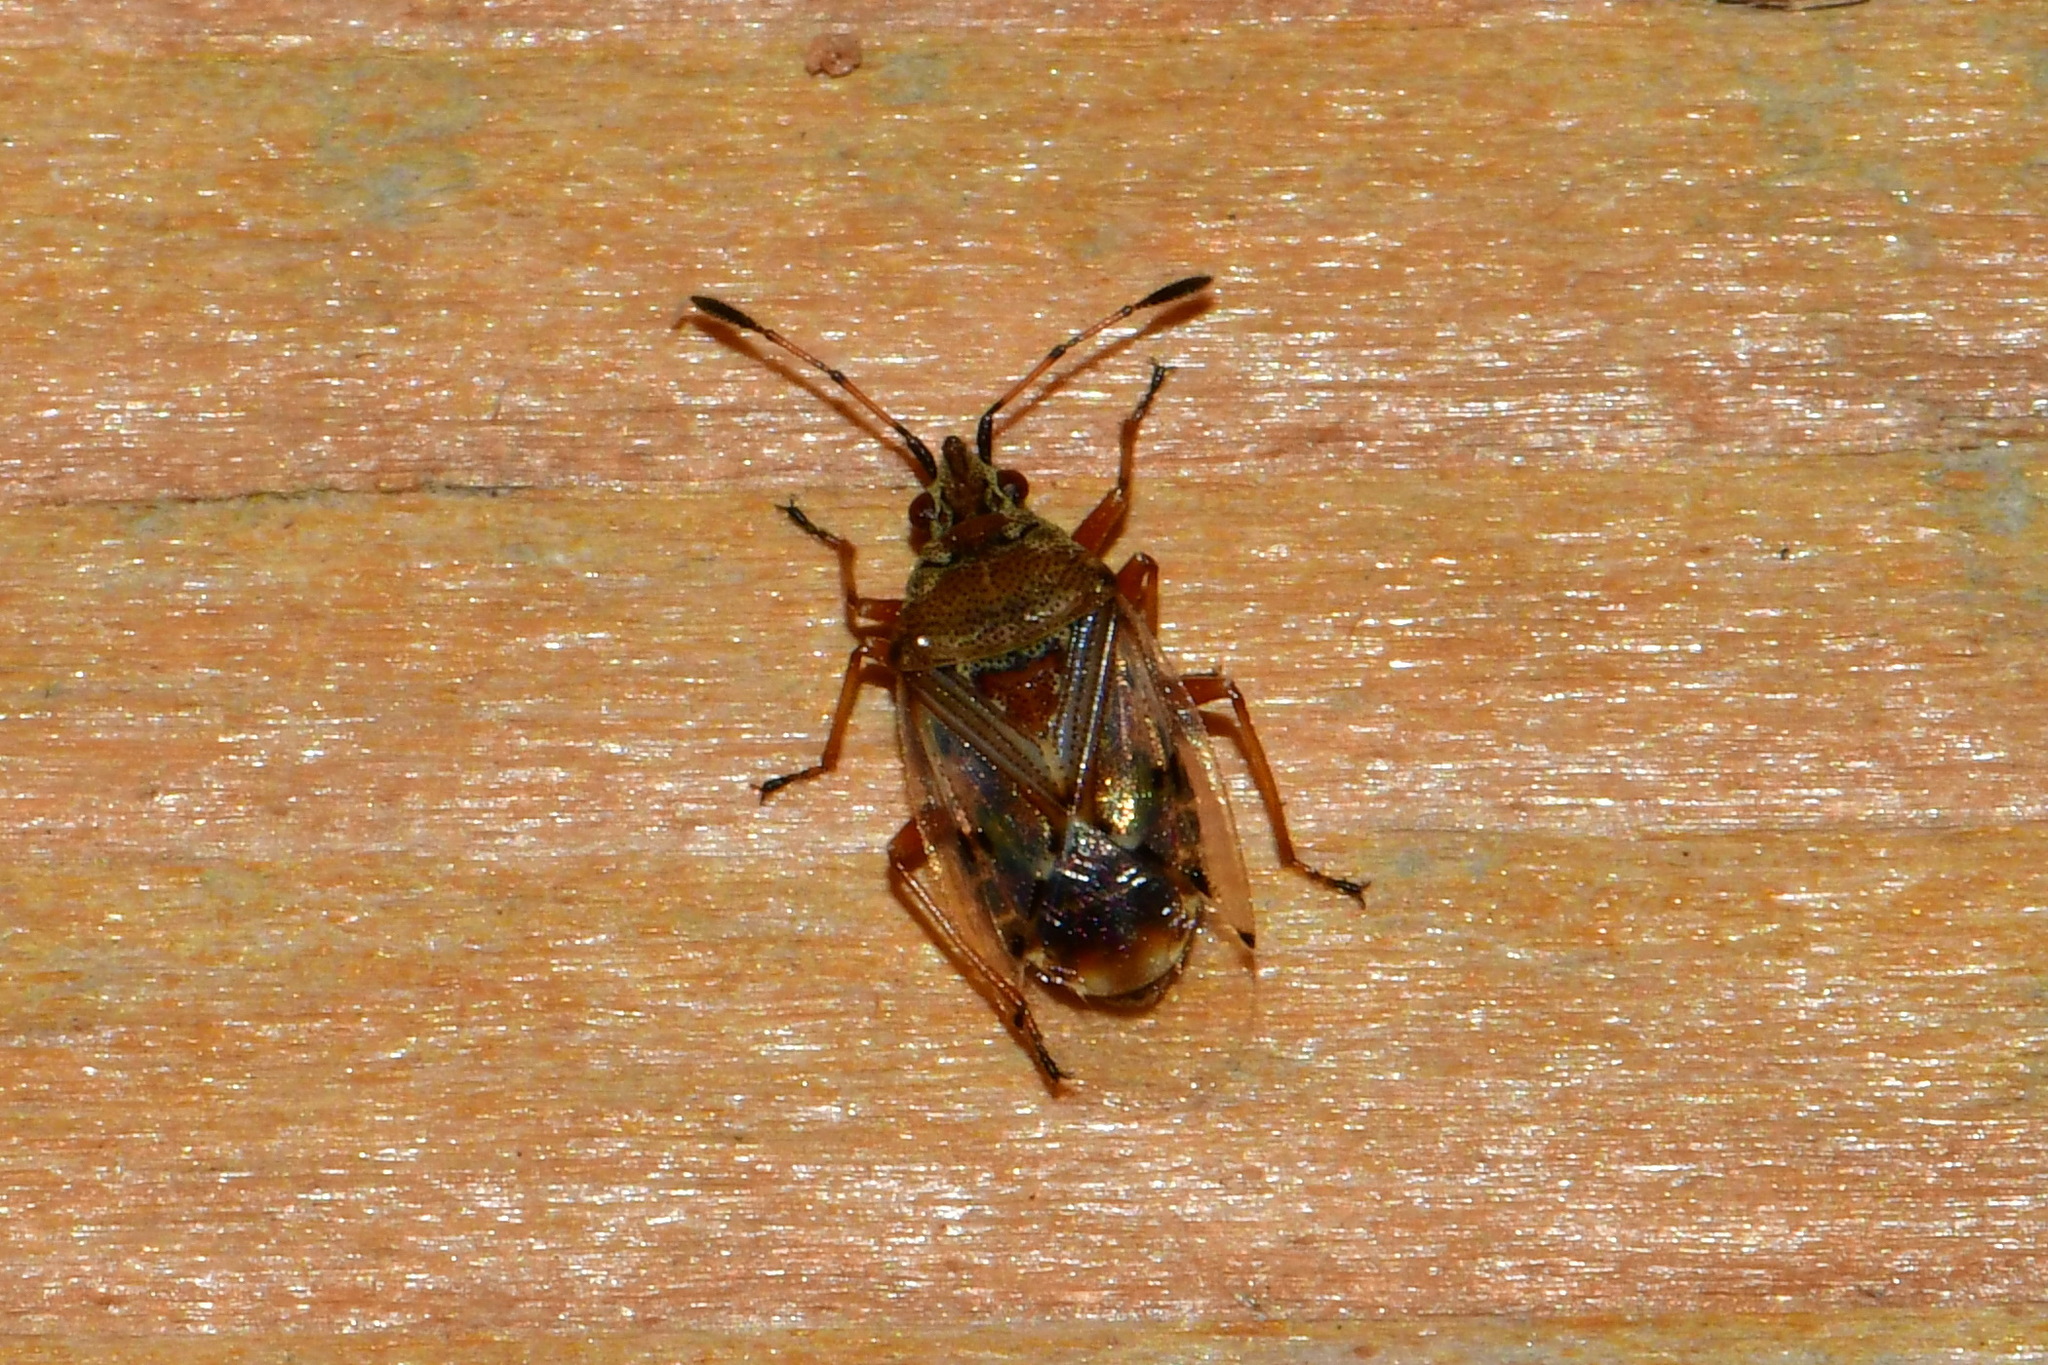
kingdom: Animalia
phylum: Arthropoda
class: Insecta
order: Hemiptera
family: Lygaeidae
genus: Kleidocerys
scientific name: Kleidocerys resedae
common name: Birch catkin bug
